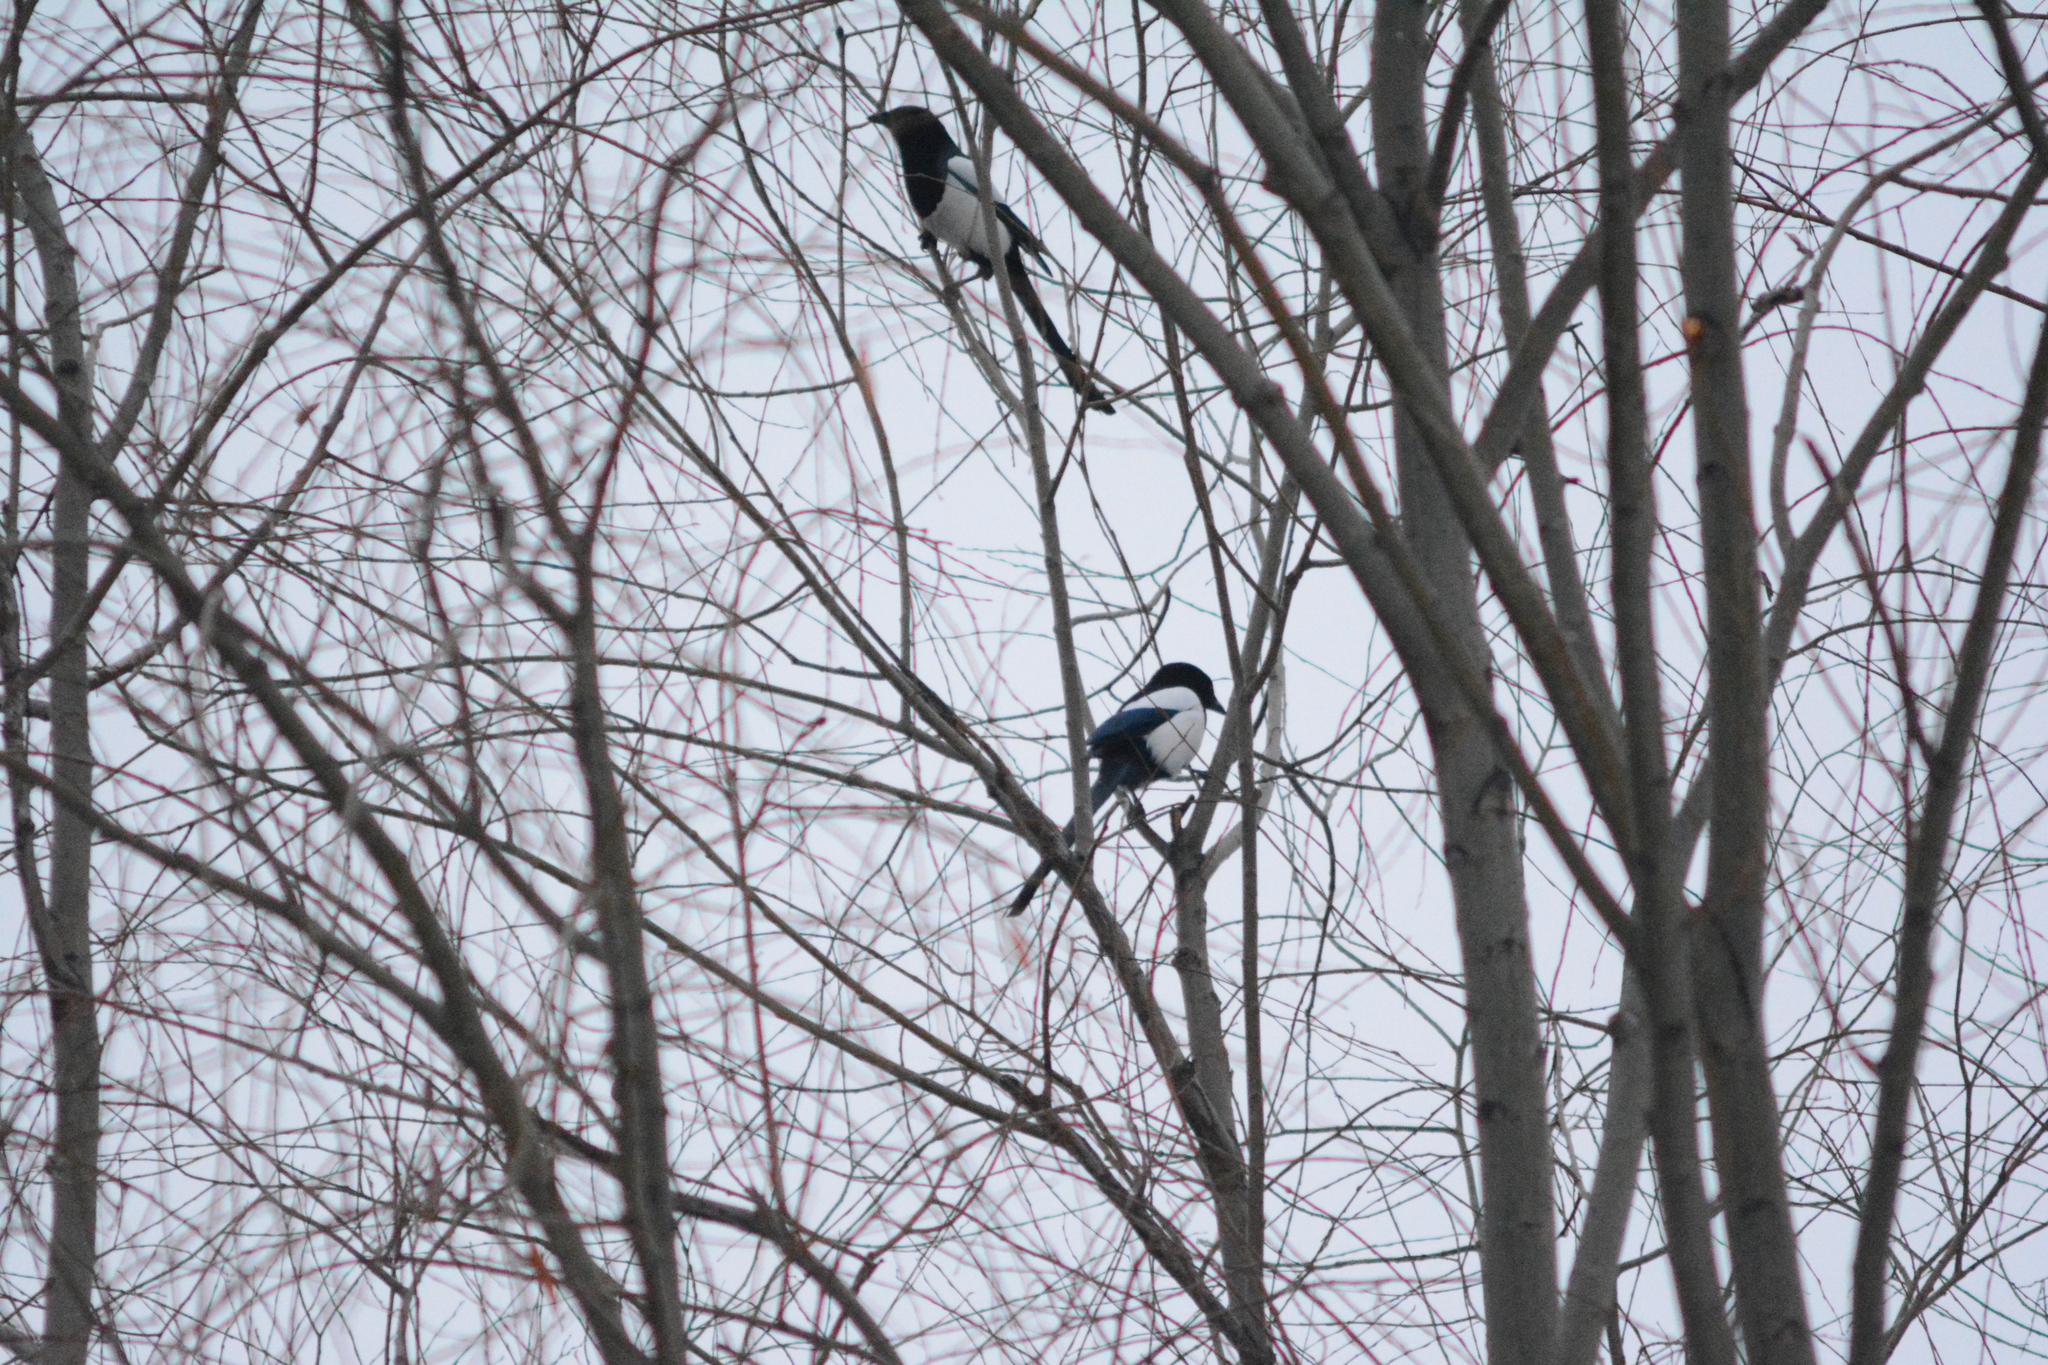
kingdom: Animalia
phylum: Chordata
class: Aves
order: Passeriformes
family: Corvidae
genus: Pica
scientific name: Pica pica
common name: Eurasian magpie
